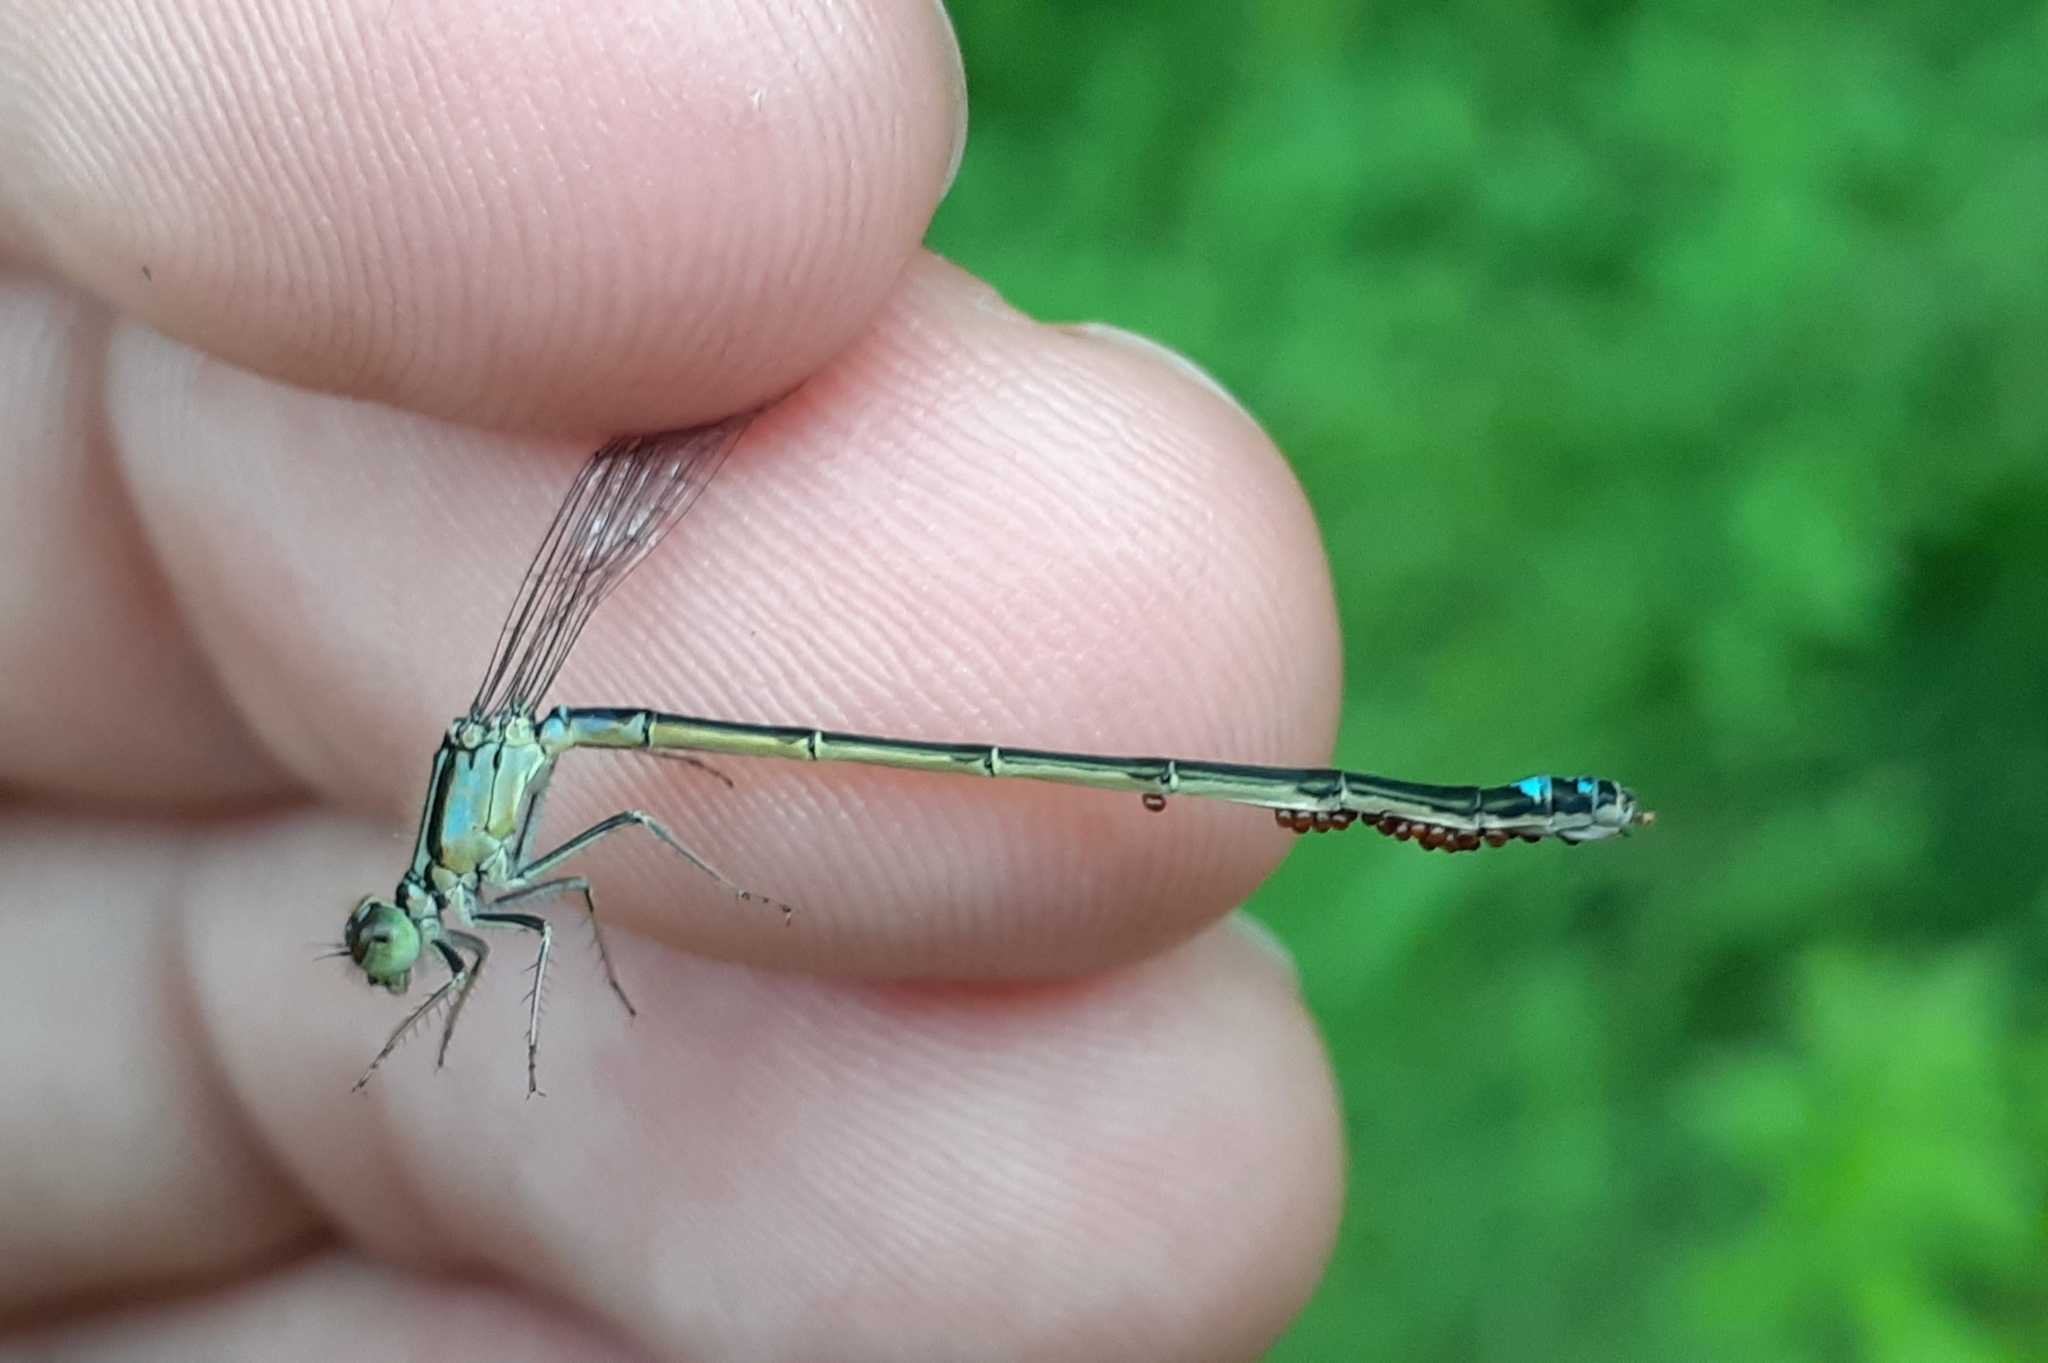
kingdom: Animalia
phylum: Arthropoda
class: Insecta
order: Odonata
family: Coenagrionidae
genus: Ischnura
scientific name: Ischnura verticalis
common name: Eastern forktail
